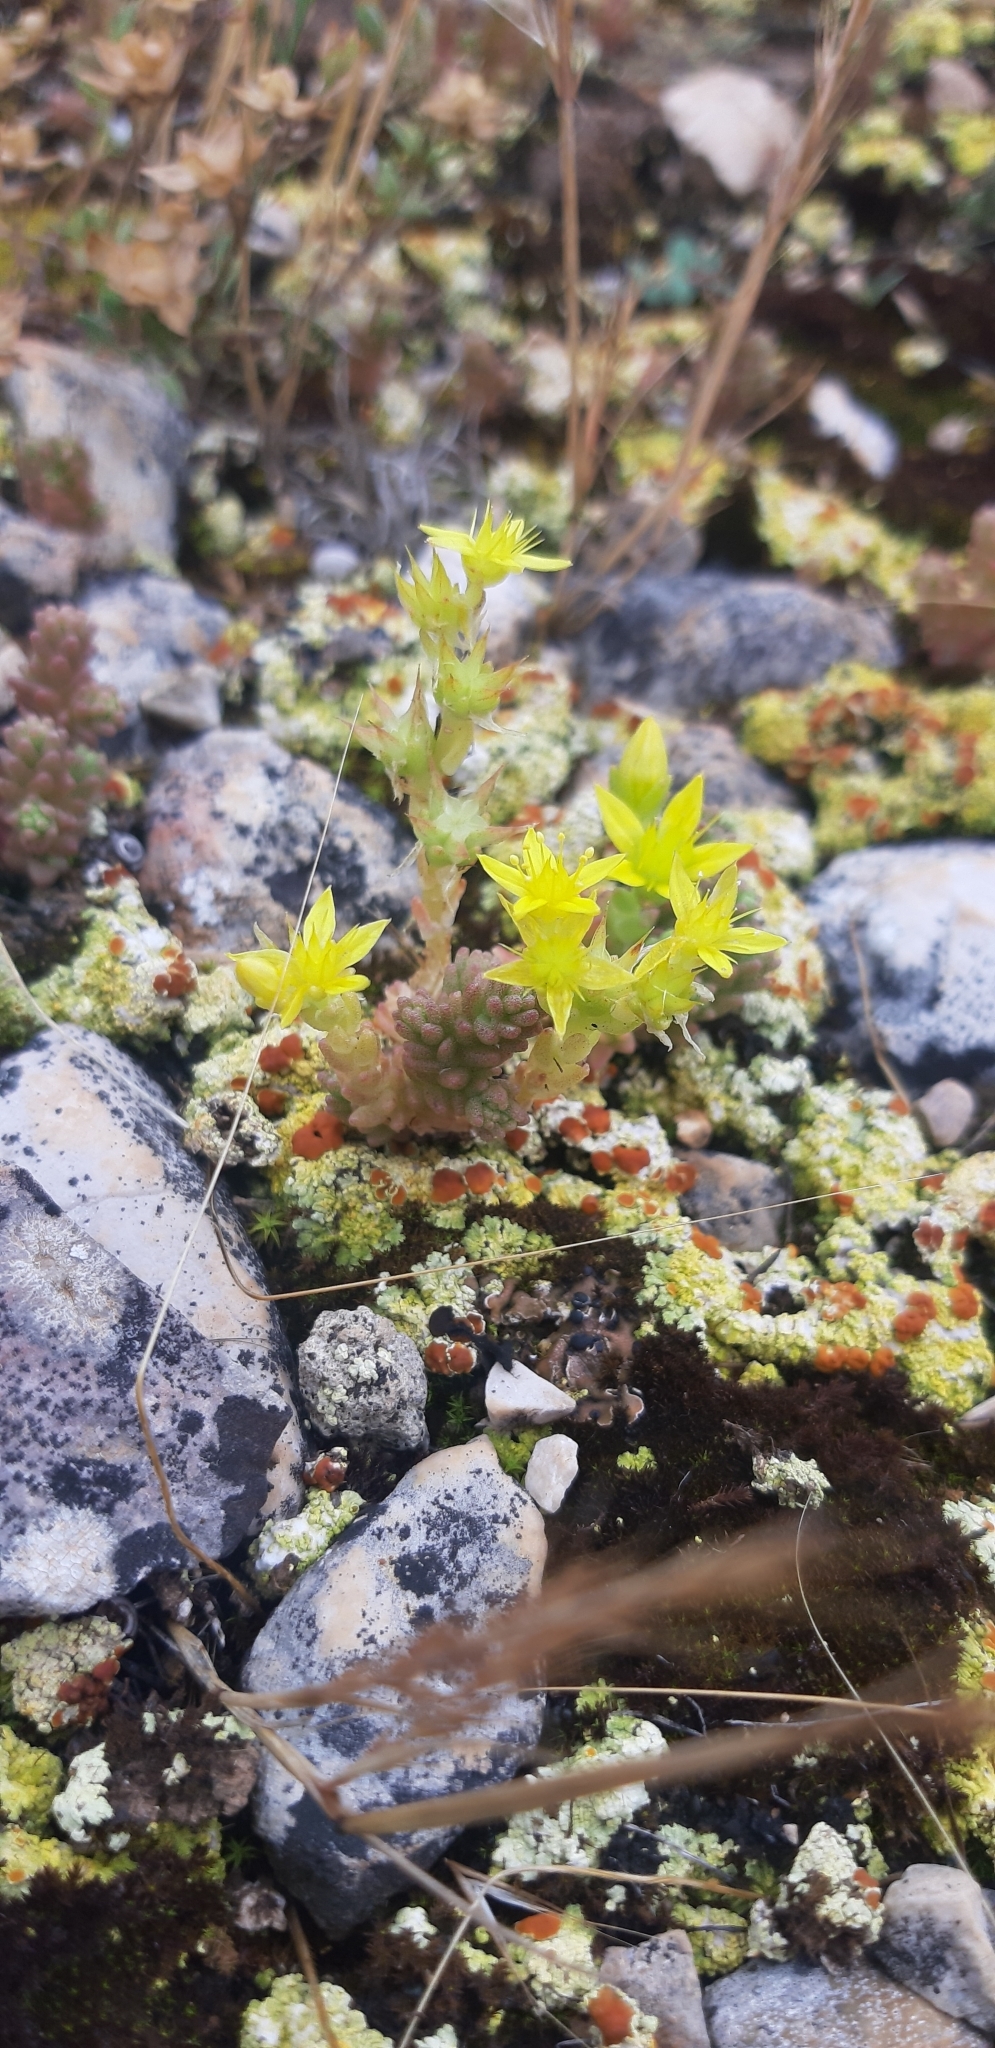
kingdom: Plantae
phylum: Tracheophyta
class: Magnoliopsida
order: Saxifragales
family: Crassulaceae
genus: Sedum
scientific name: Sedum acre
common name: Biting stonecrop
